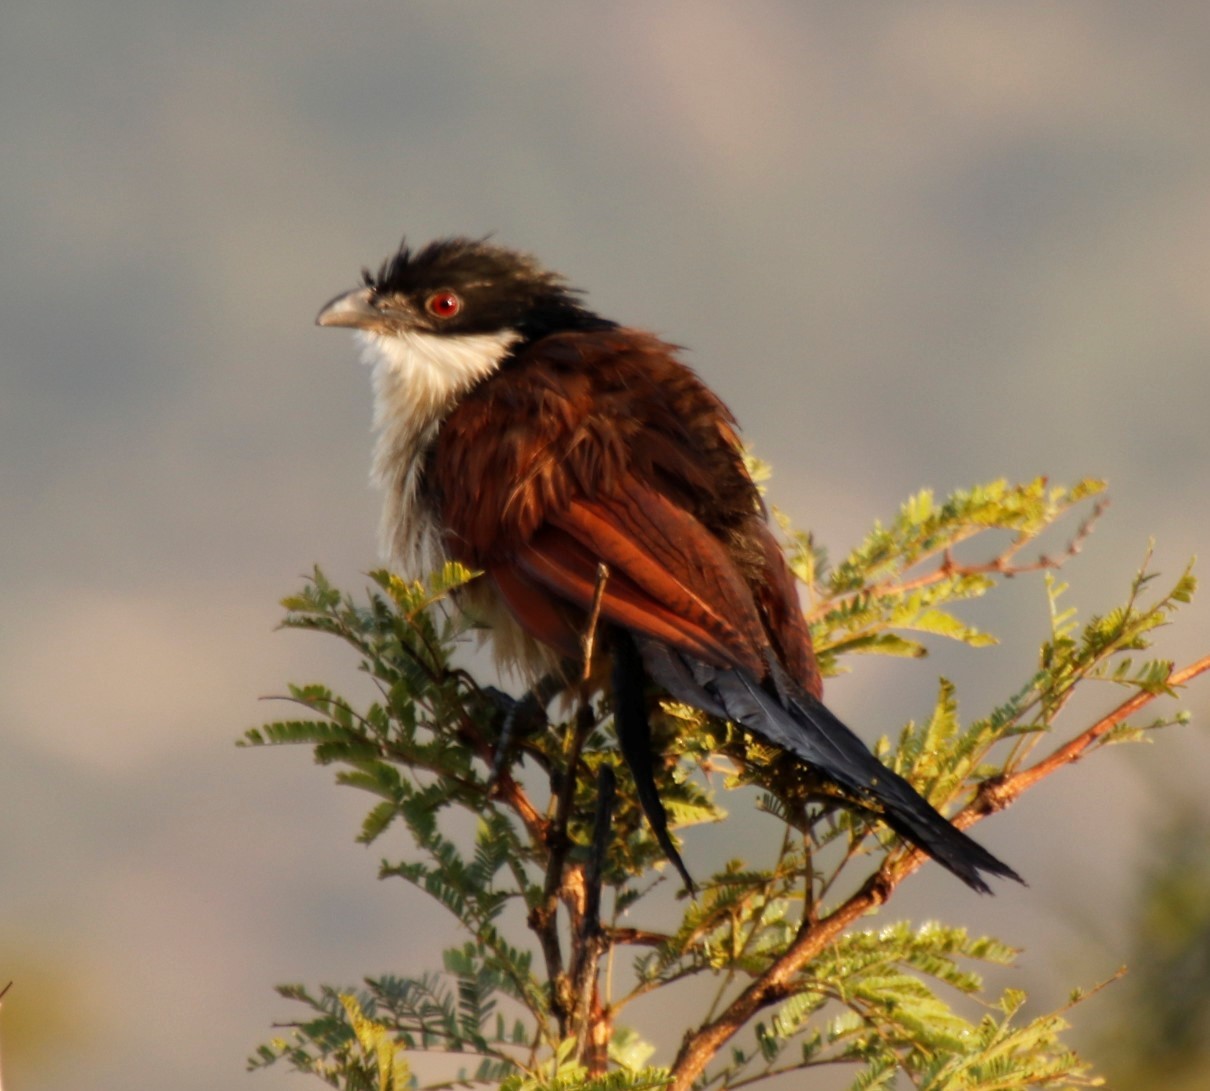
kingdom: Animalia
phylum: Chordata
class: Aves
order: Cuculiformes
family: Cuculidae
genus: Centropus
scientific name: Centropus superciliosus
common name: White-browed coucal
